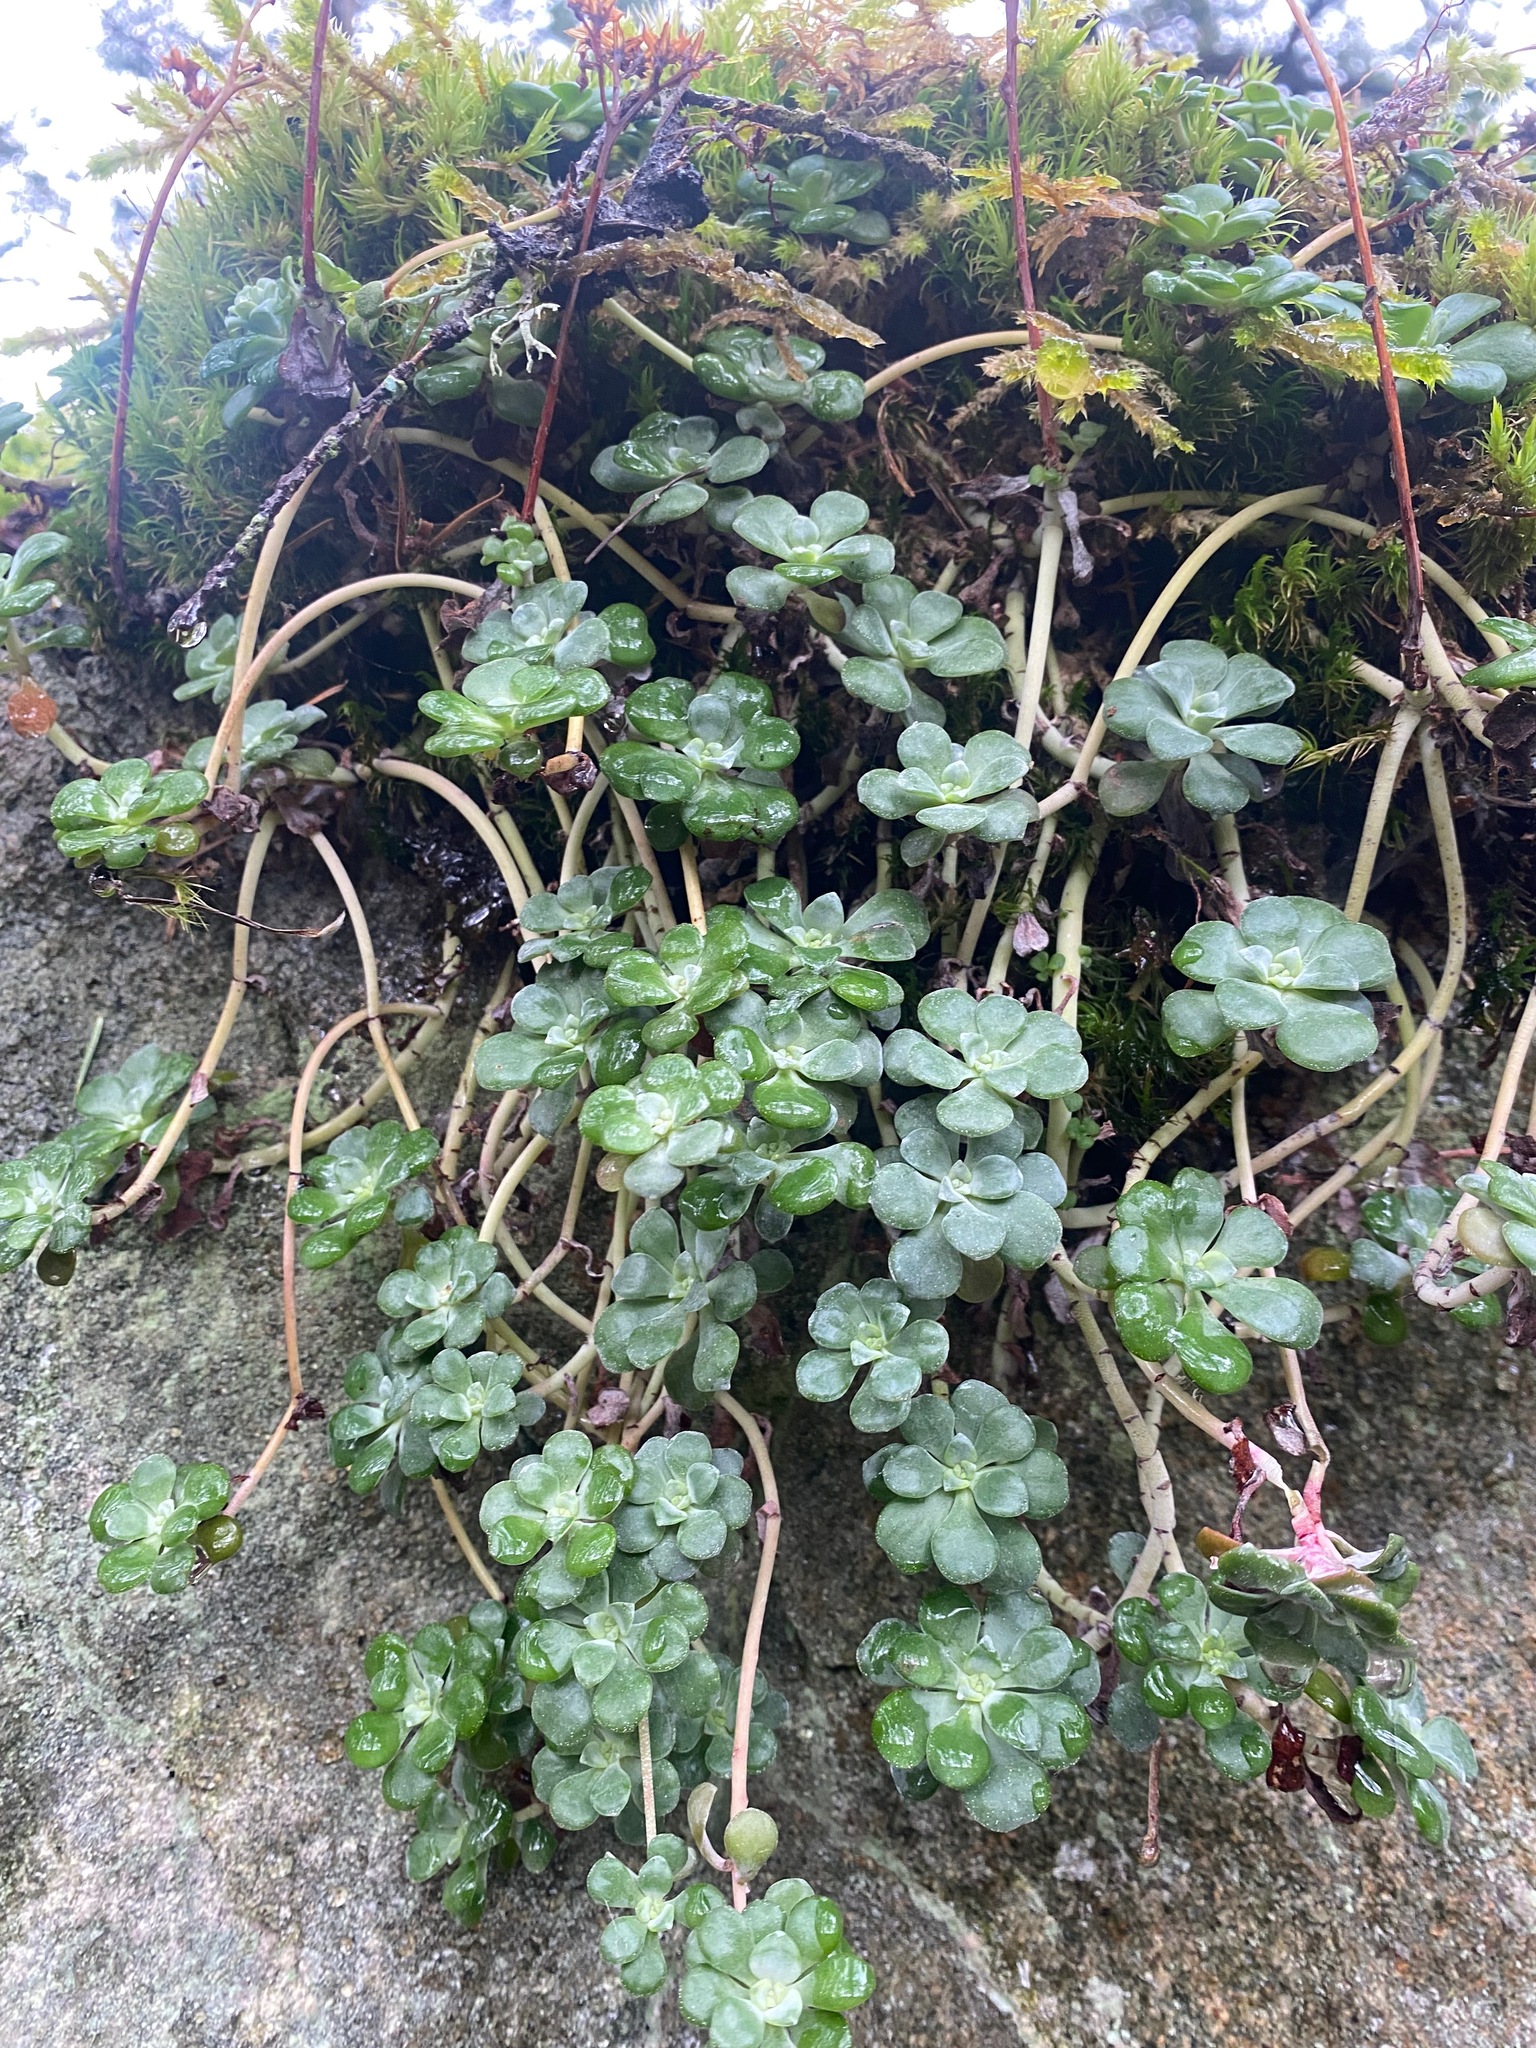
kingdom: Plantae
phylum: Tracheophyta
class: Magnoliopsida
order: Saxifragales
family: Crassulaceae
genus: Sedum
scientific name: Sedum spathulifolium
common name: Colorado stonecrop
